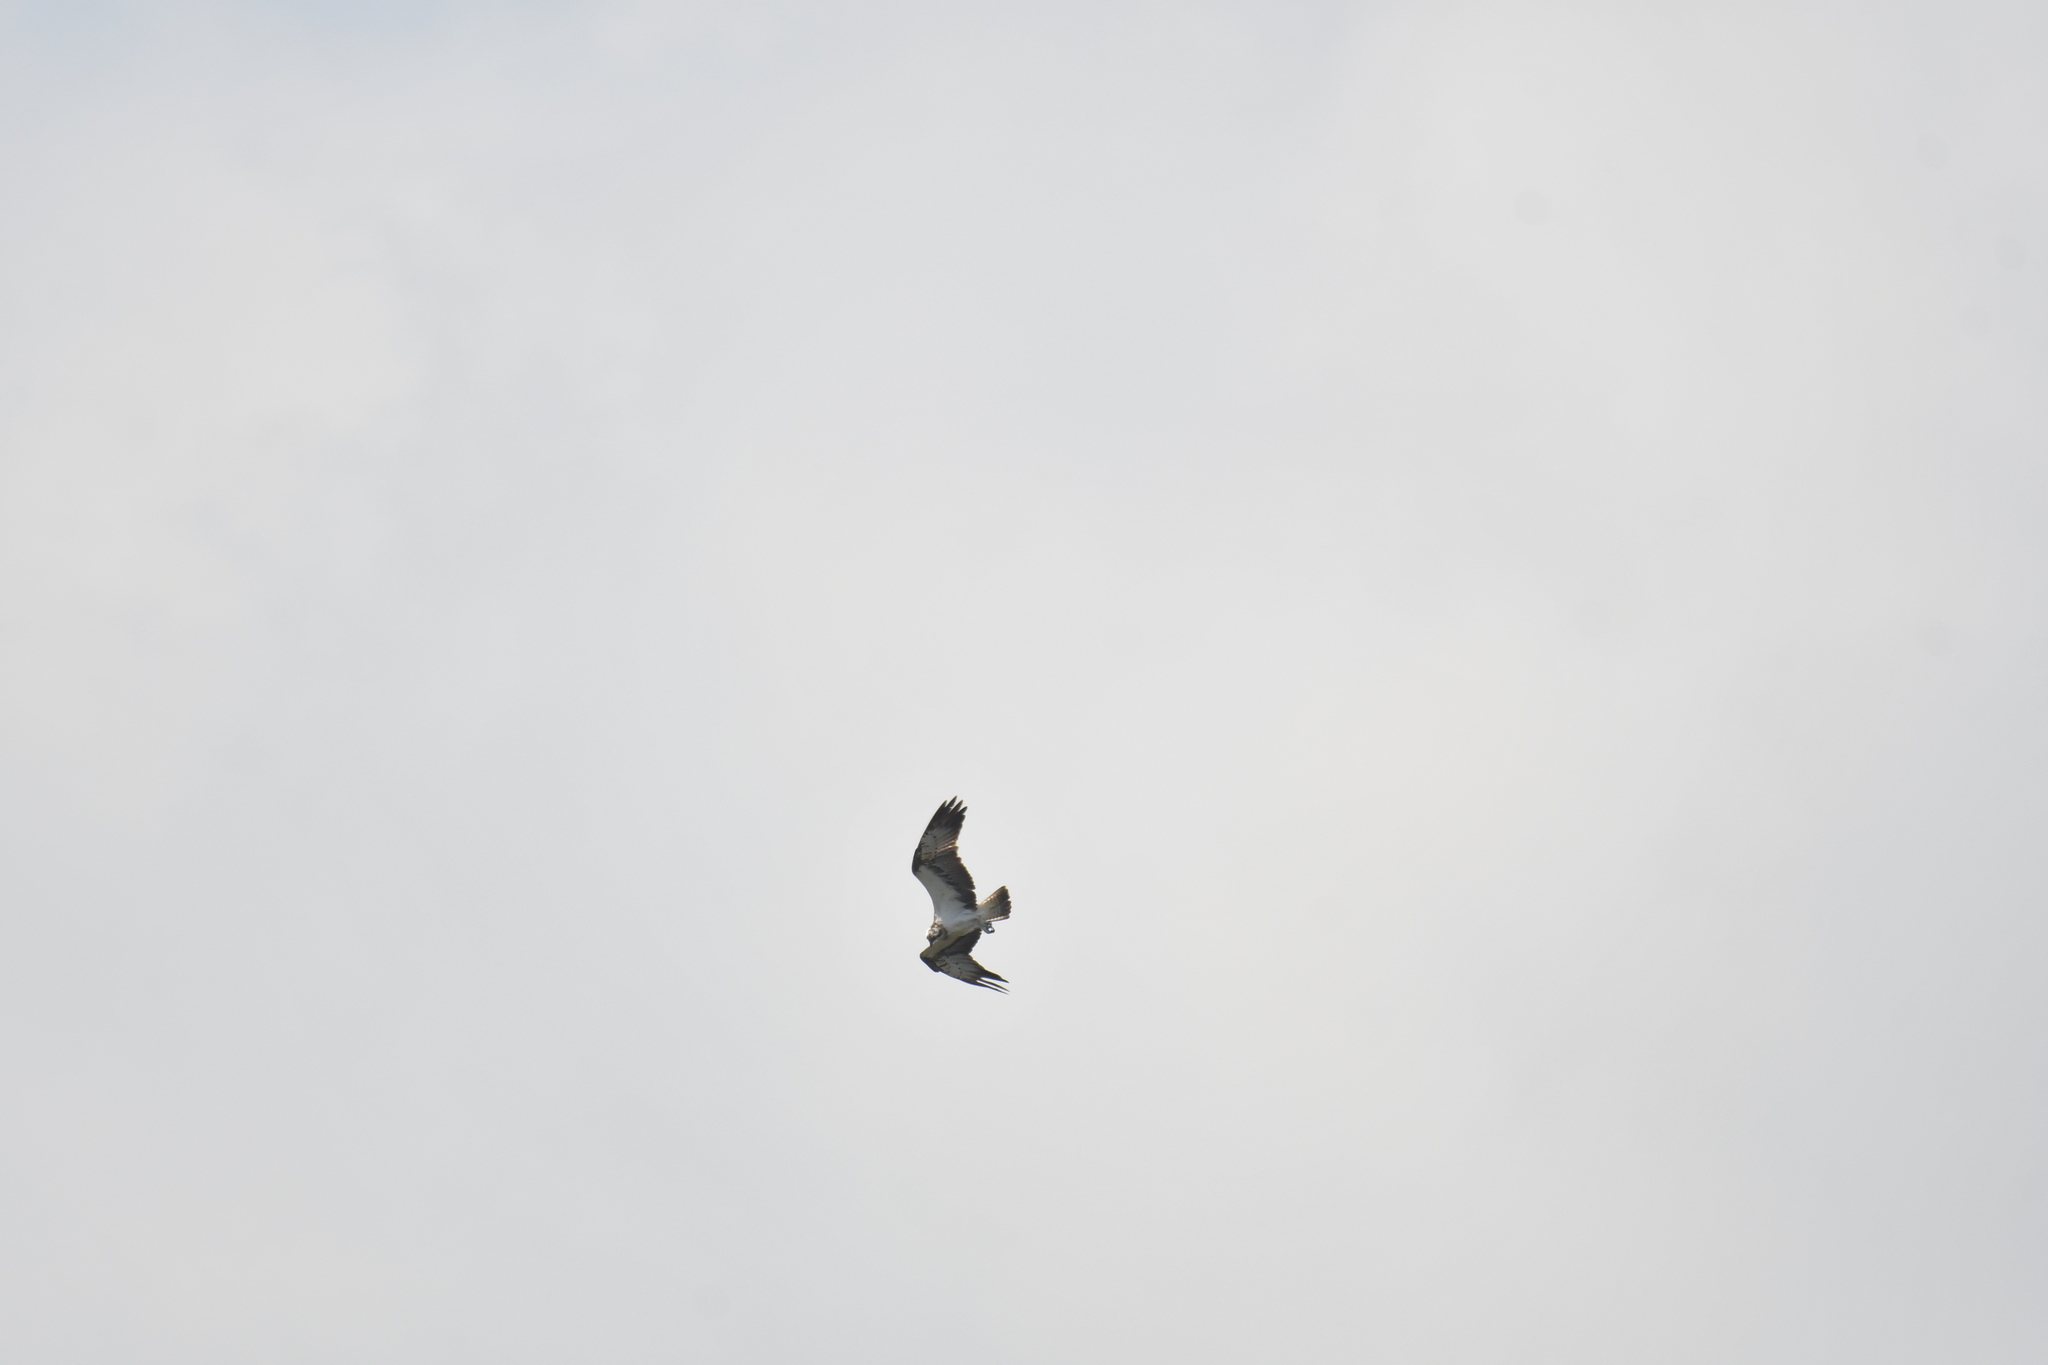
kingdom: Animalia
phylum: Chordata
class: Aves
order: Accipitriformes
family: Pandionidae
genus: Pandion
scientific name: Pandion haliaetus
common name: Osprey
